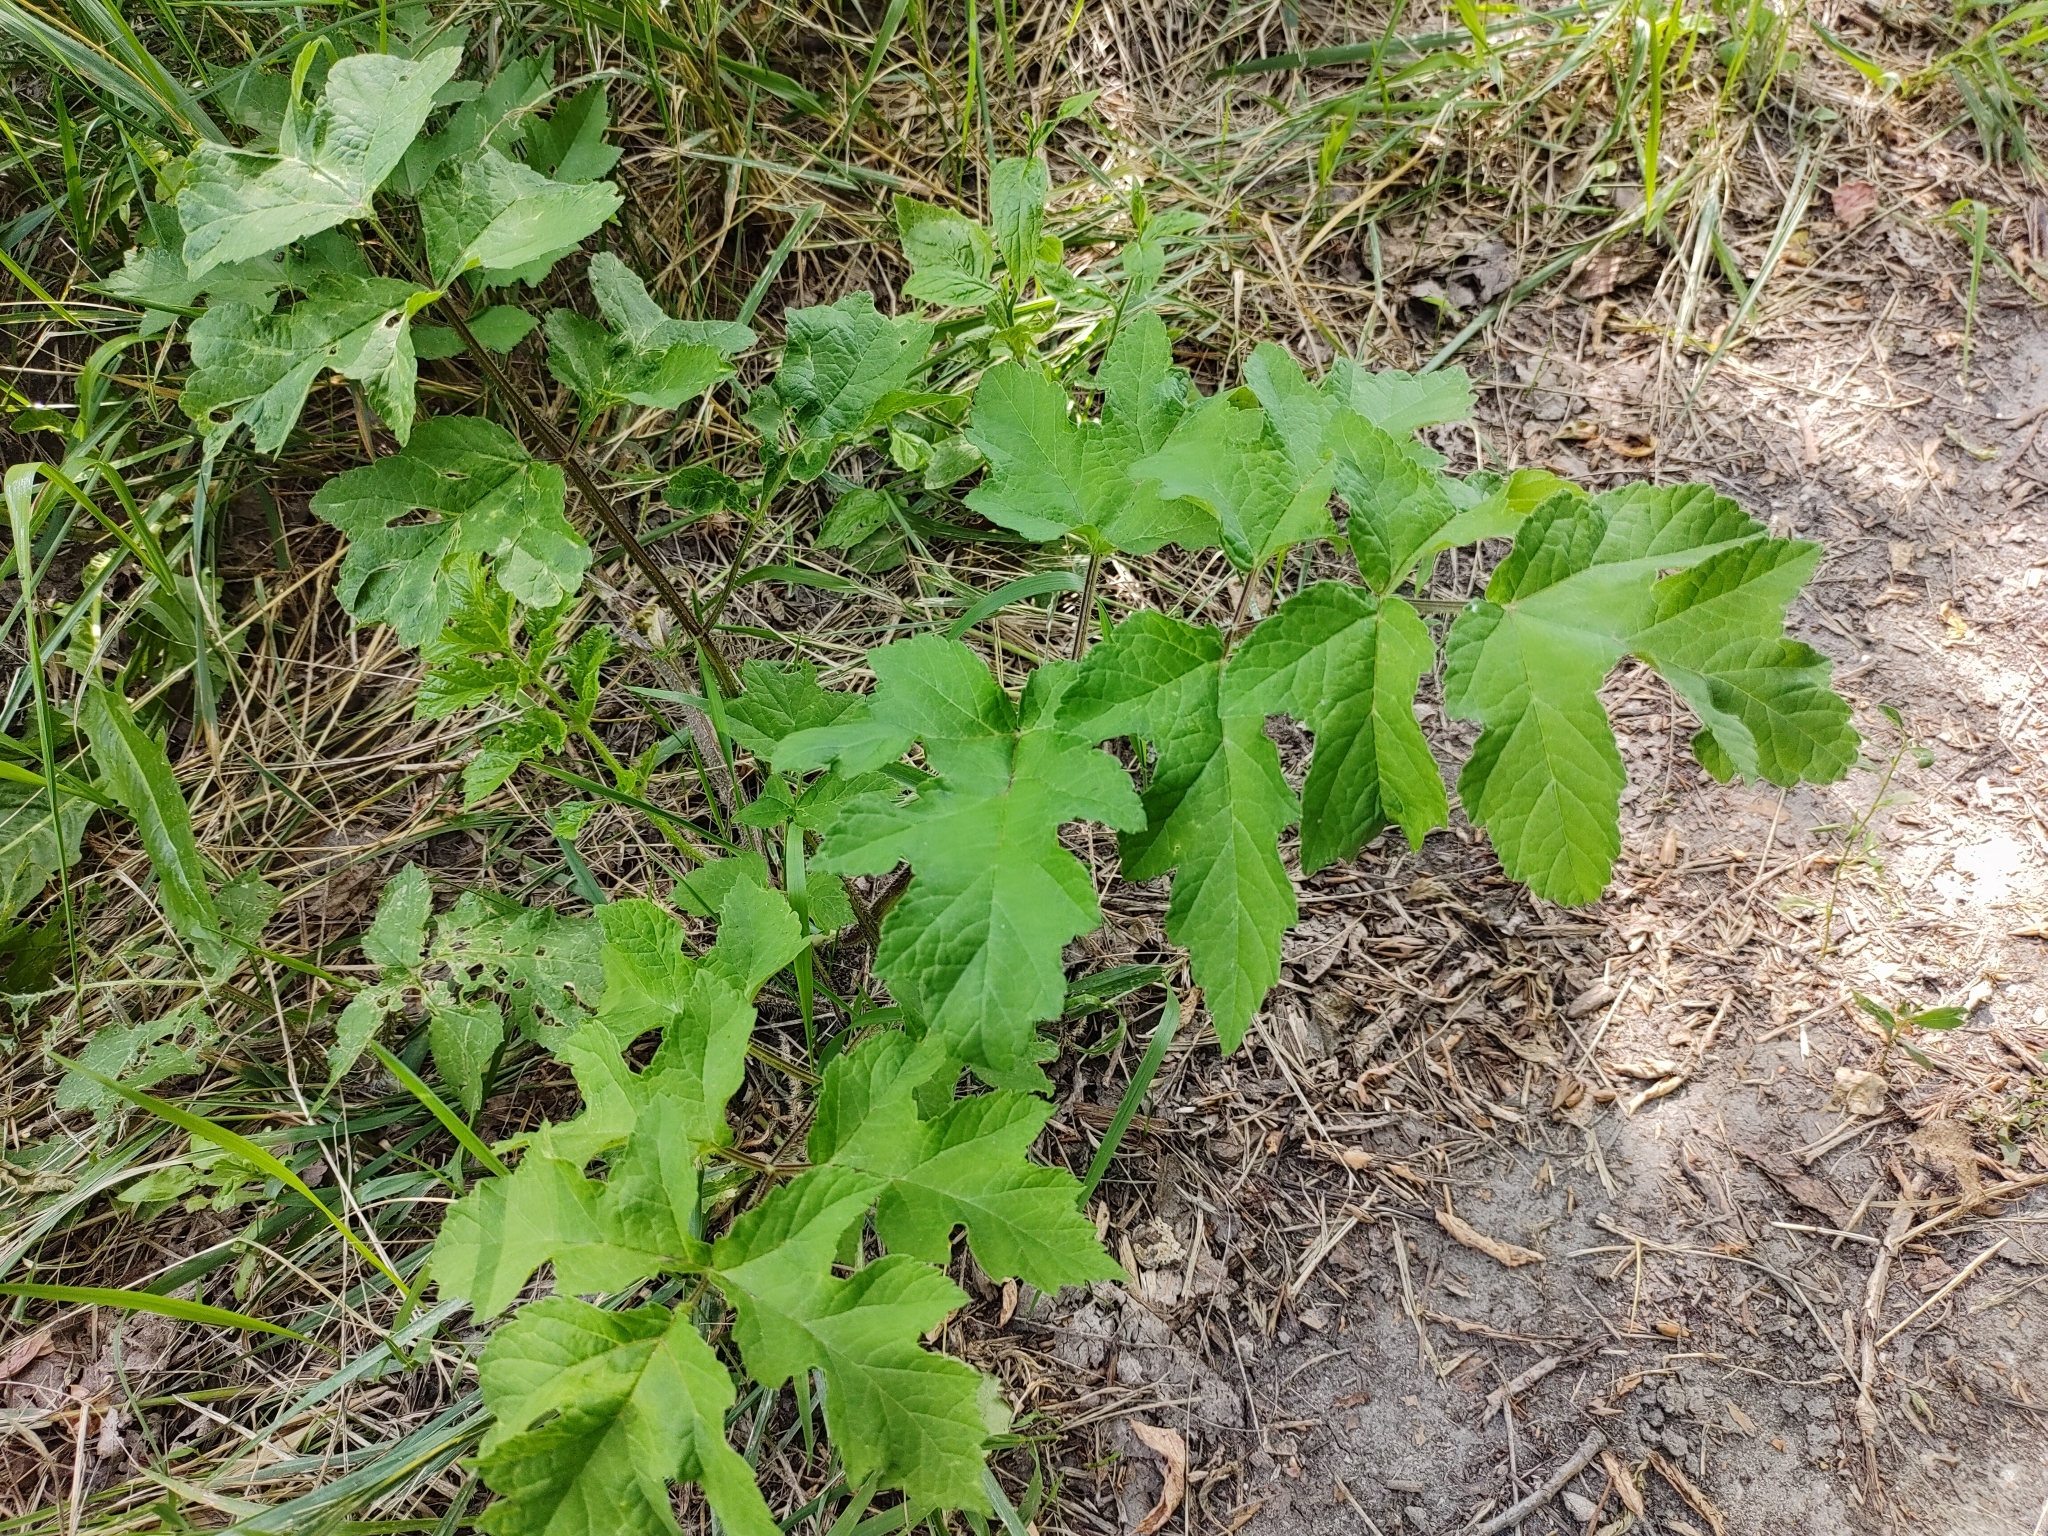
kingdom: Plantae
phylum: Tracheophyta
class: Magnoliopsida
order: Apiales
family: Apiaceae
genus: Heracleum
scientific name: Heracleum sphondylium
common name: Hogweed
